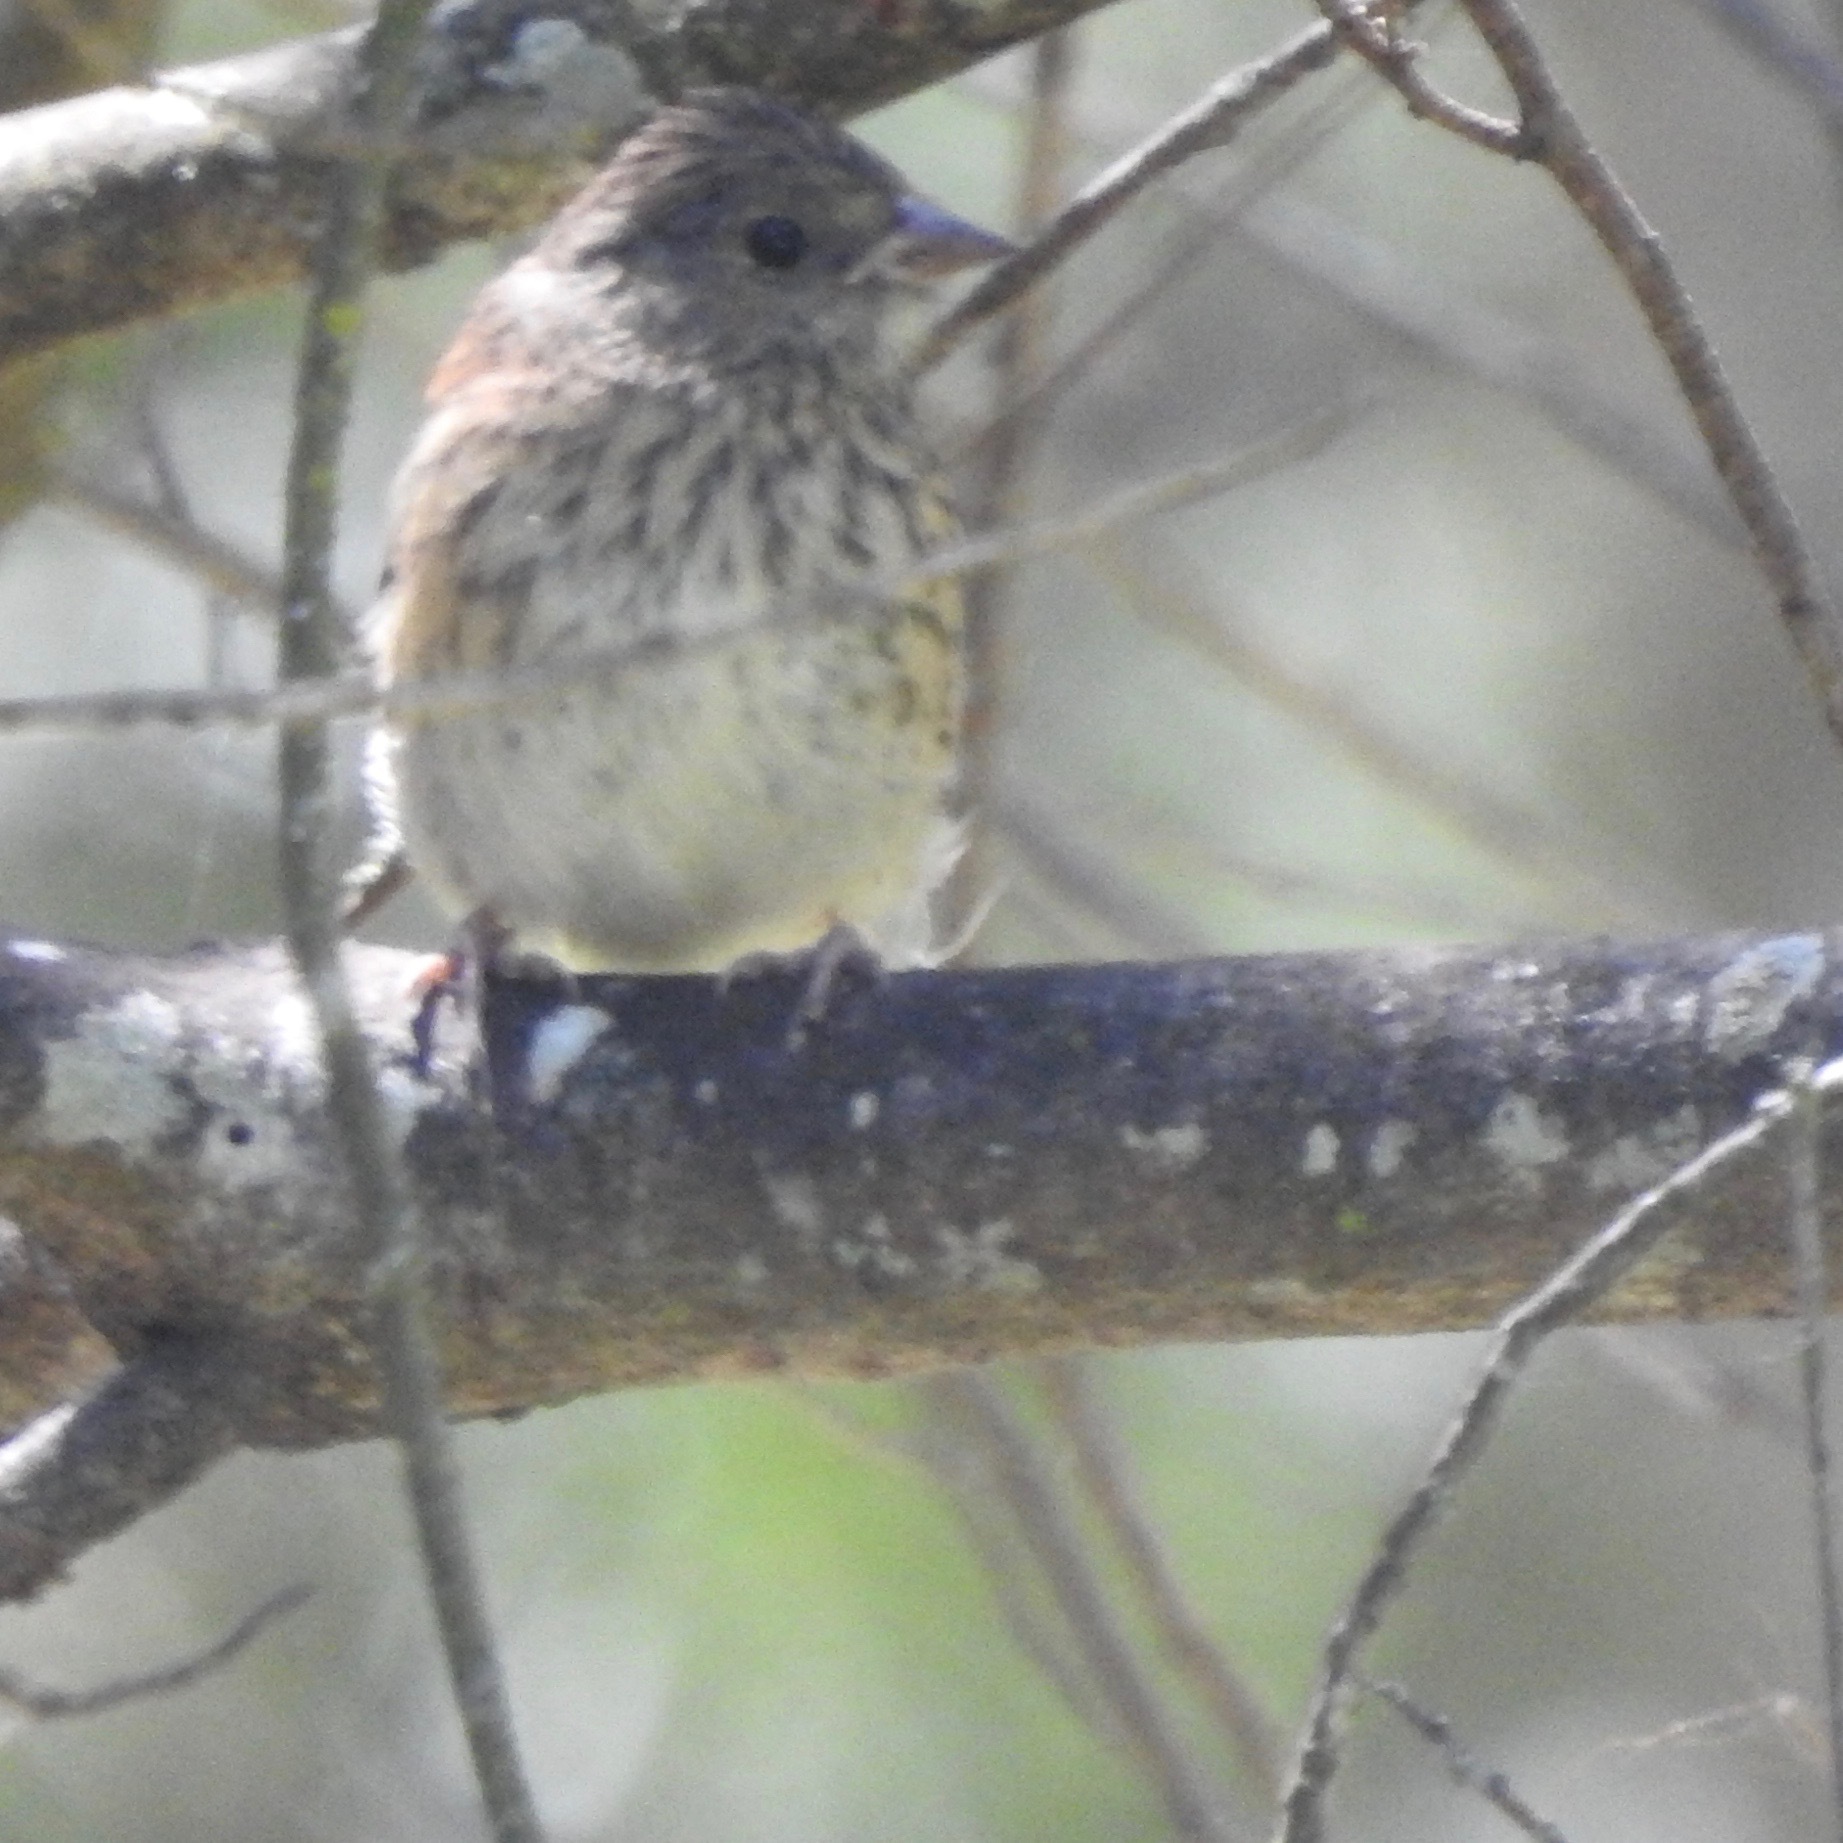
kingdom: Animalia
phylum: Chordata
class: Aves
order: Passeriformes
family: Passerellidae
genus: Junco
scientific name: Junco hyemalis
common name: Dark-eyed junco
